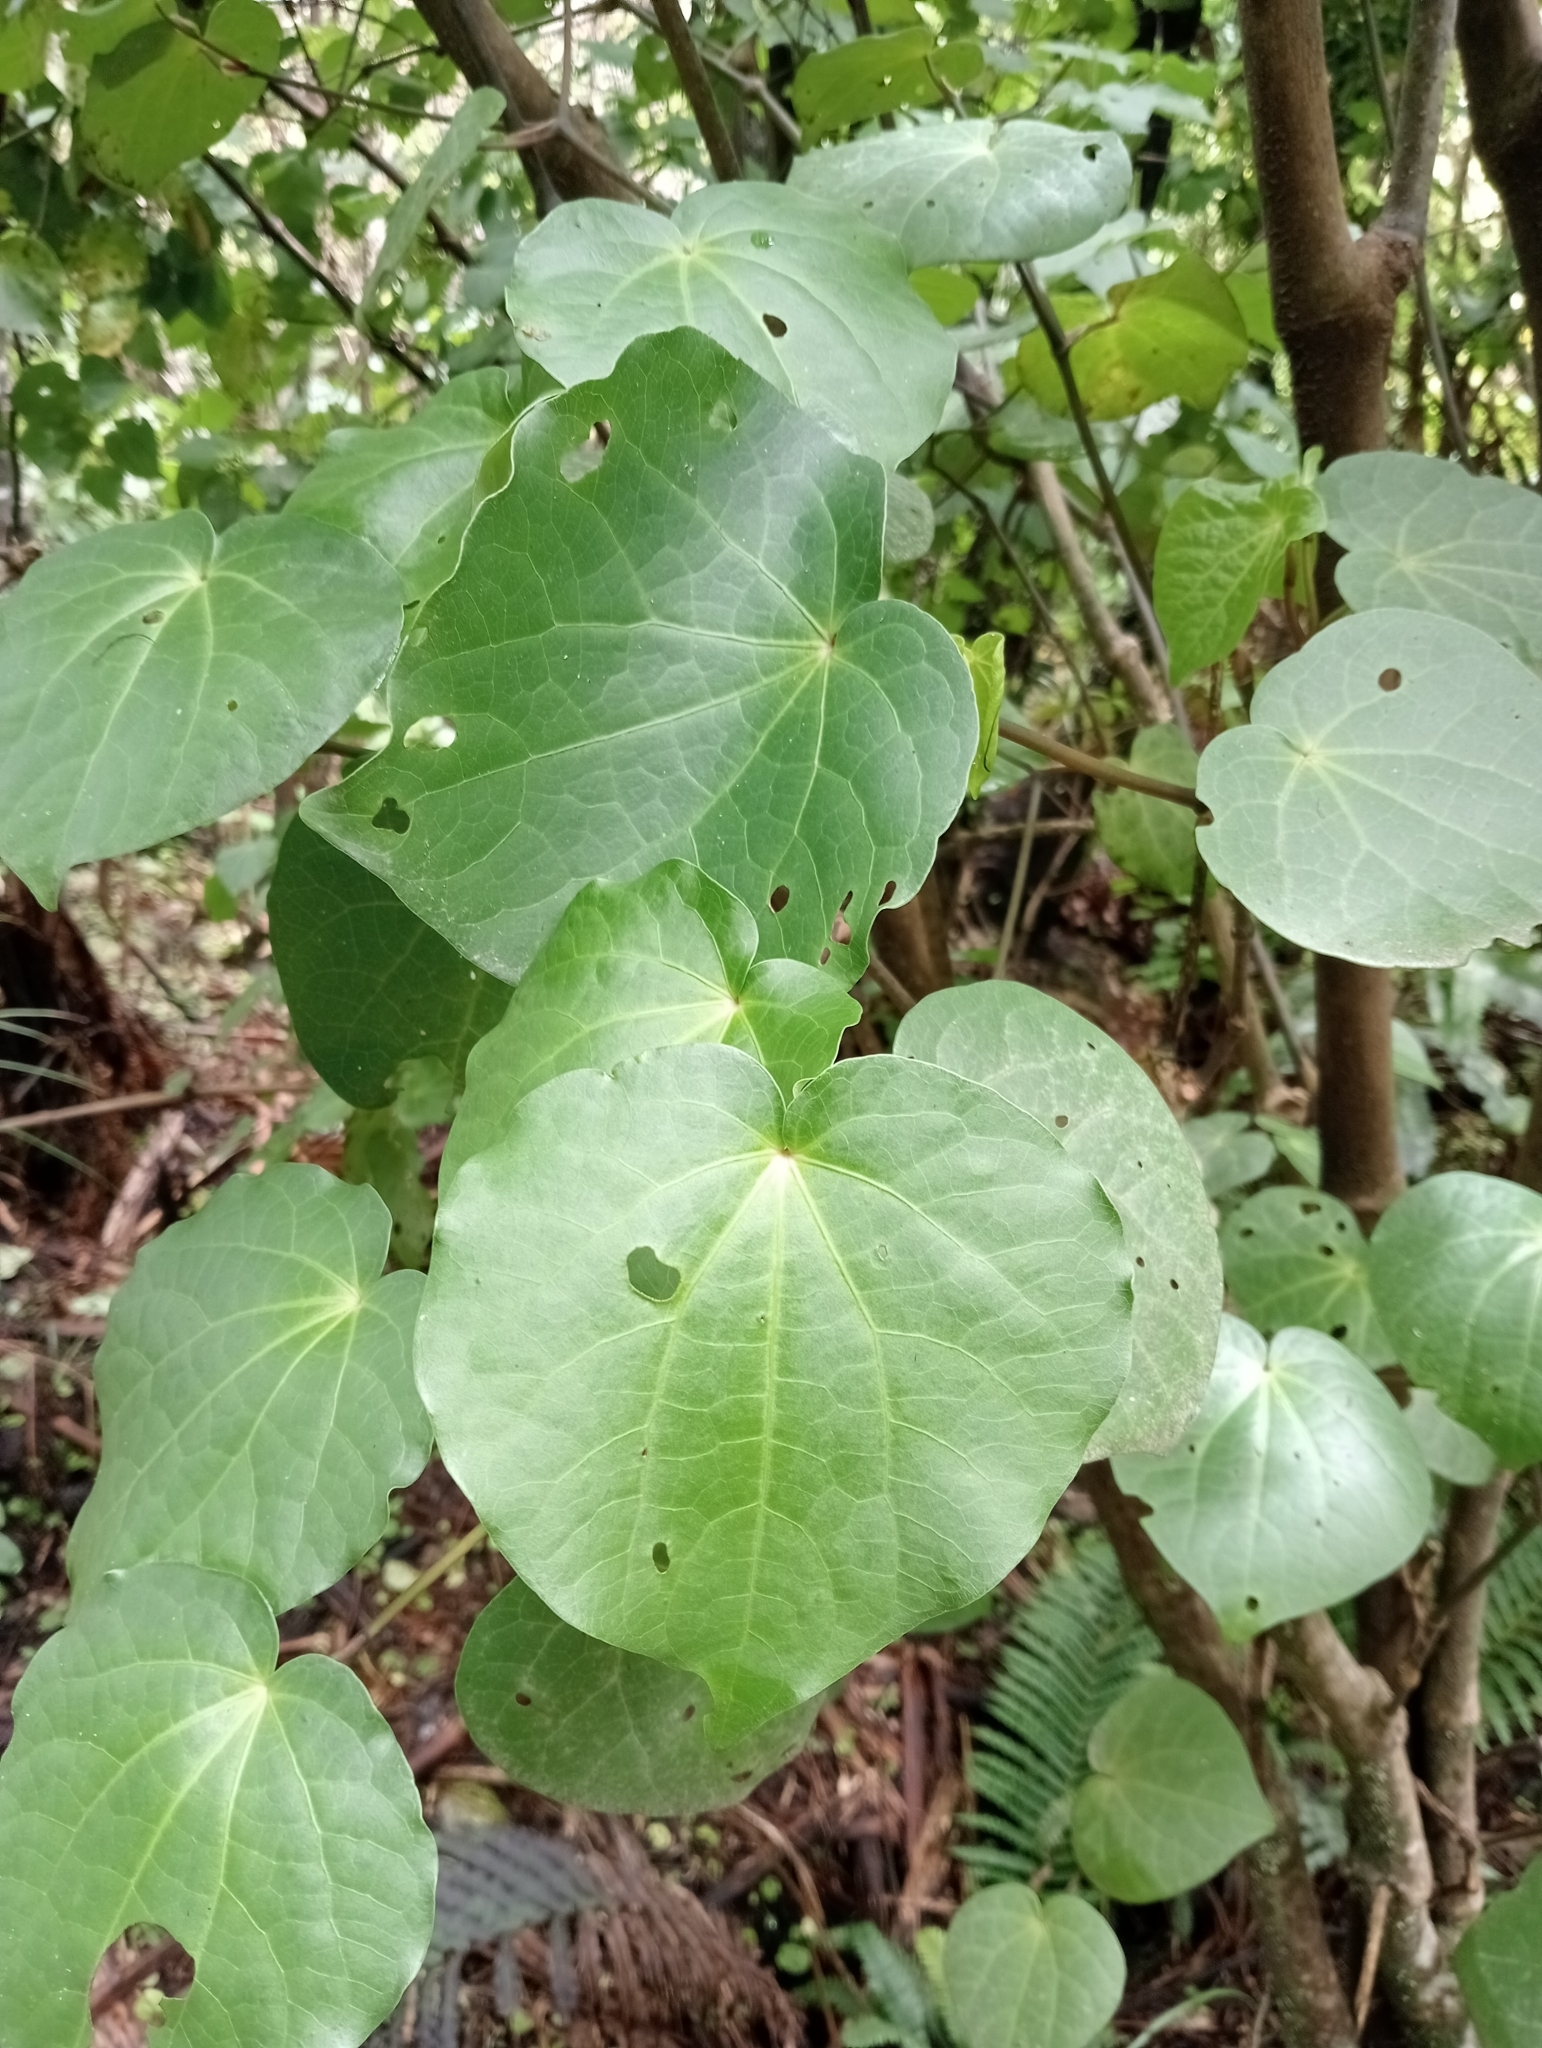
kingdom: Plantae
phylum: Tracheophyta
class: Magnoliopsida
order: Piperales
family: Piperaceae
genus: Macropiper
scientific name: Macropiper excelsum
